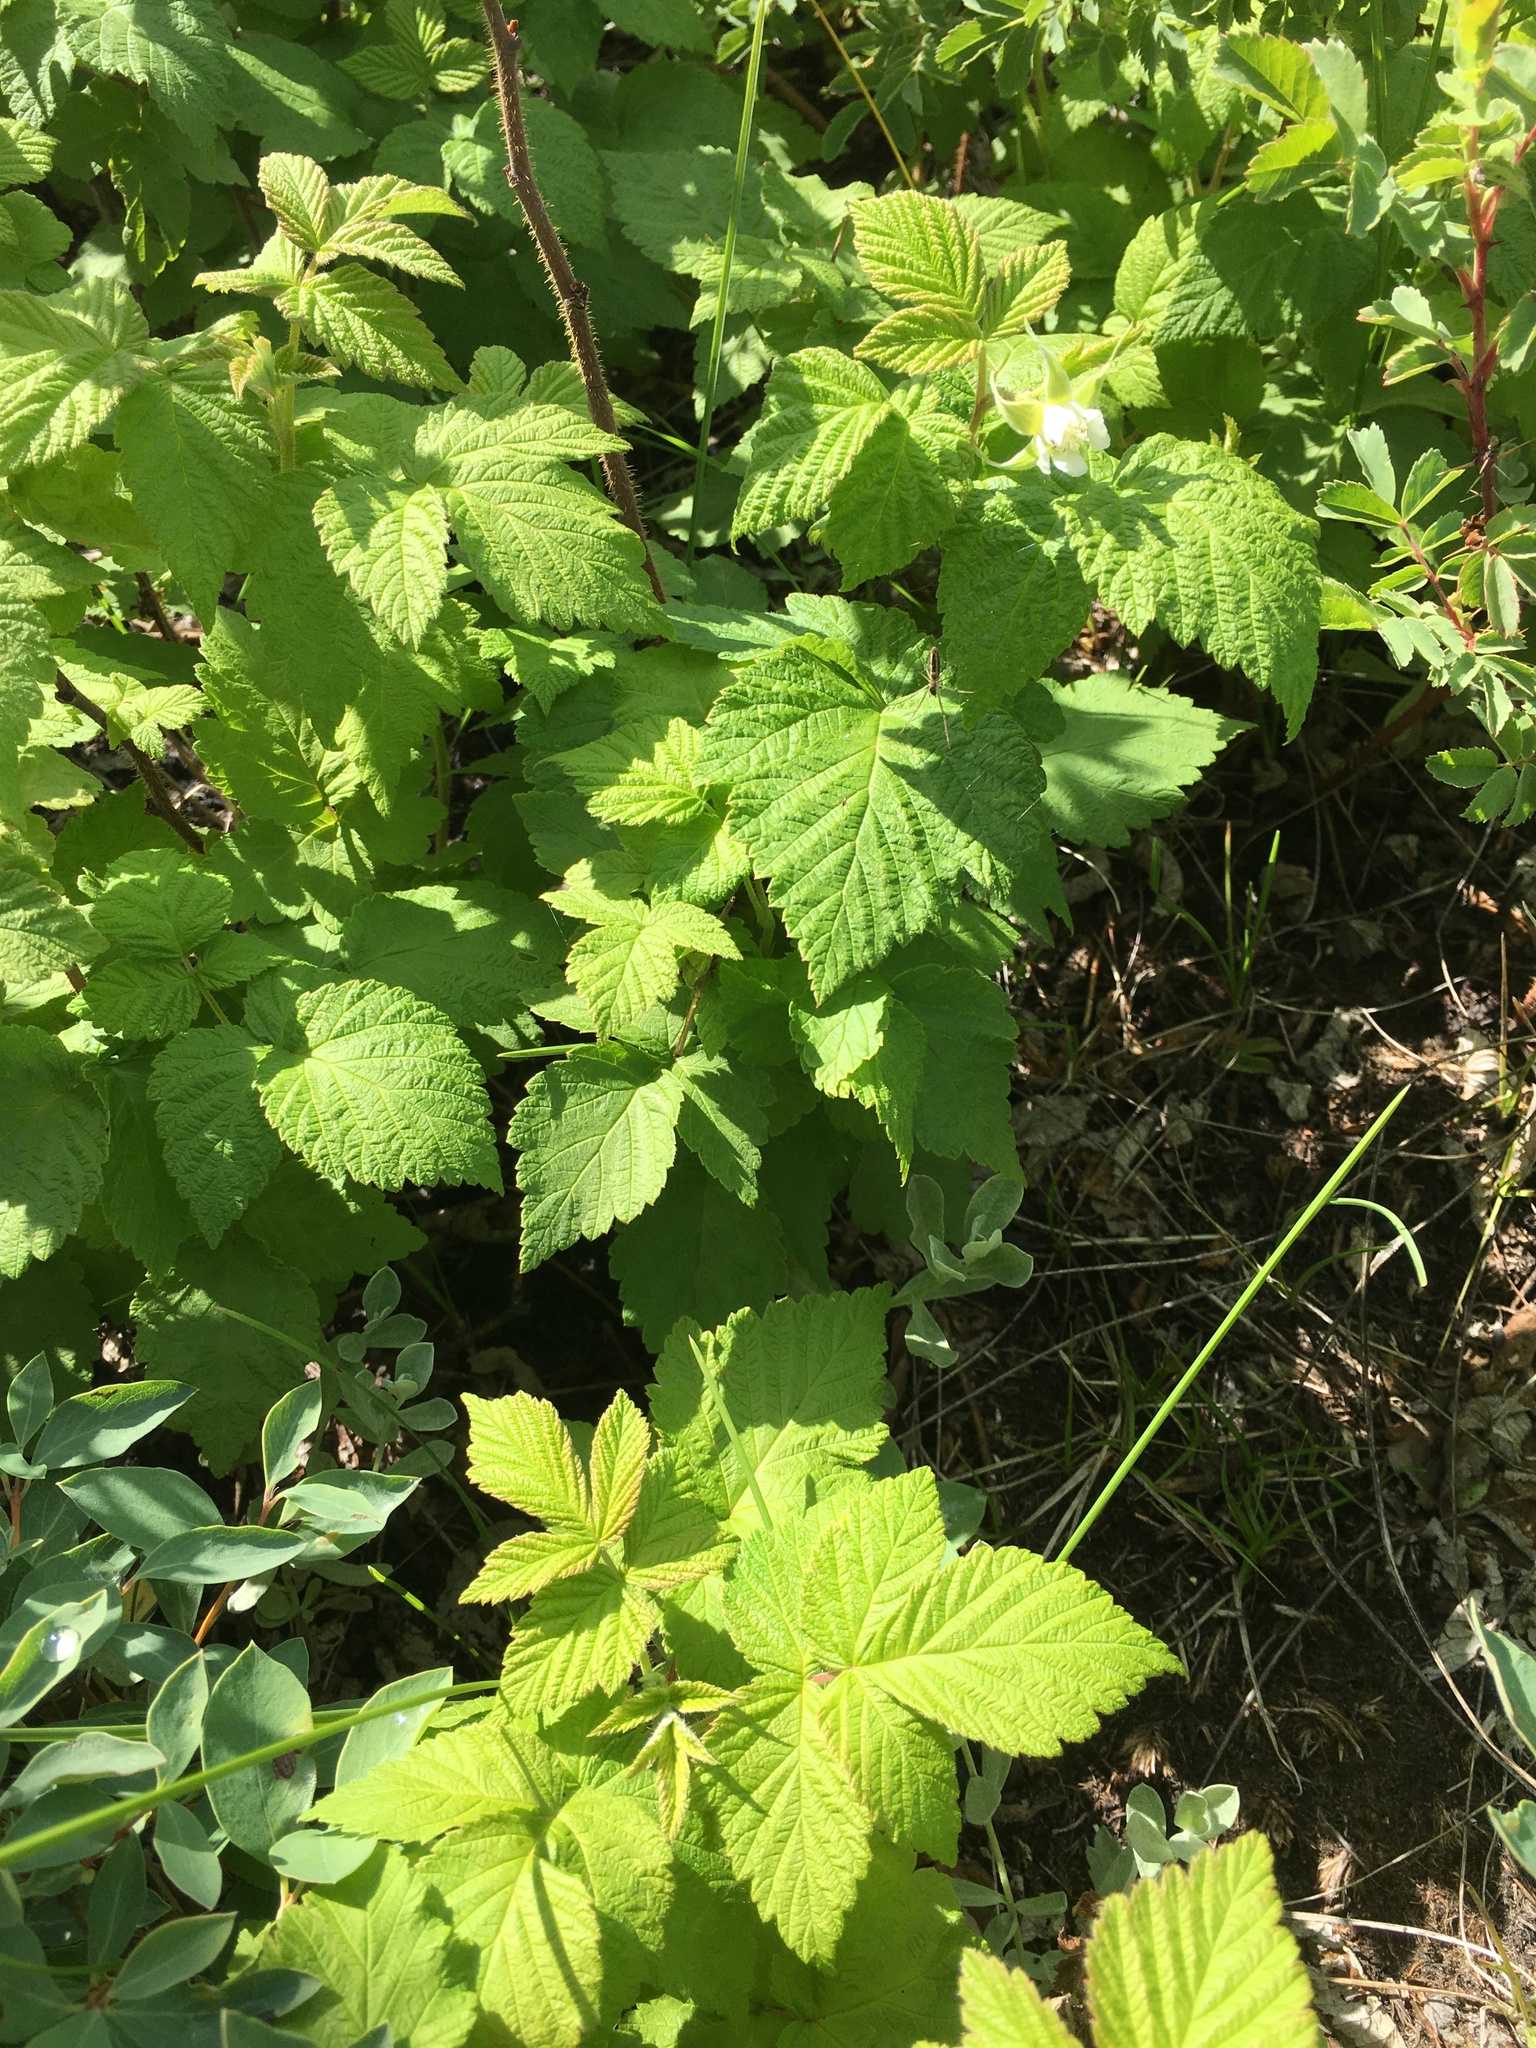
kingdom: Plantae
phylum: Tracheophyta
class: Magnoliopsida
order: Rosales
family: Rosaceae
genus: Rubus
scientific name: Rubus idaeus
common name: Raspberry
